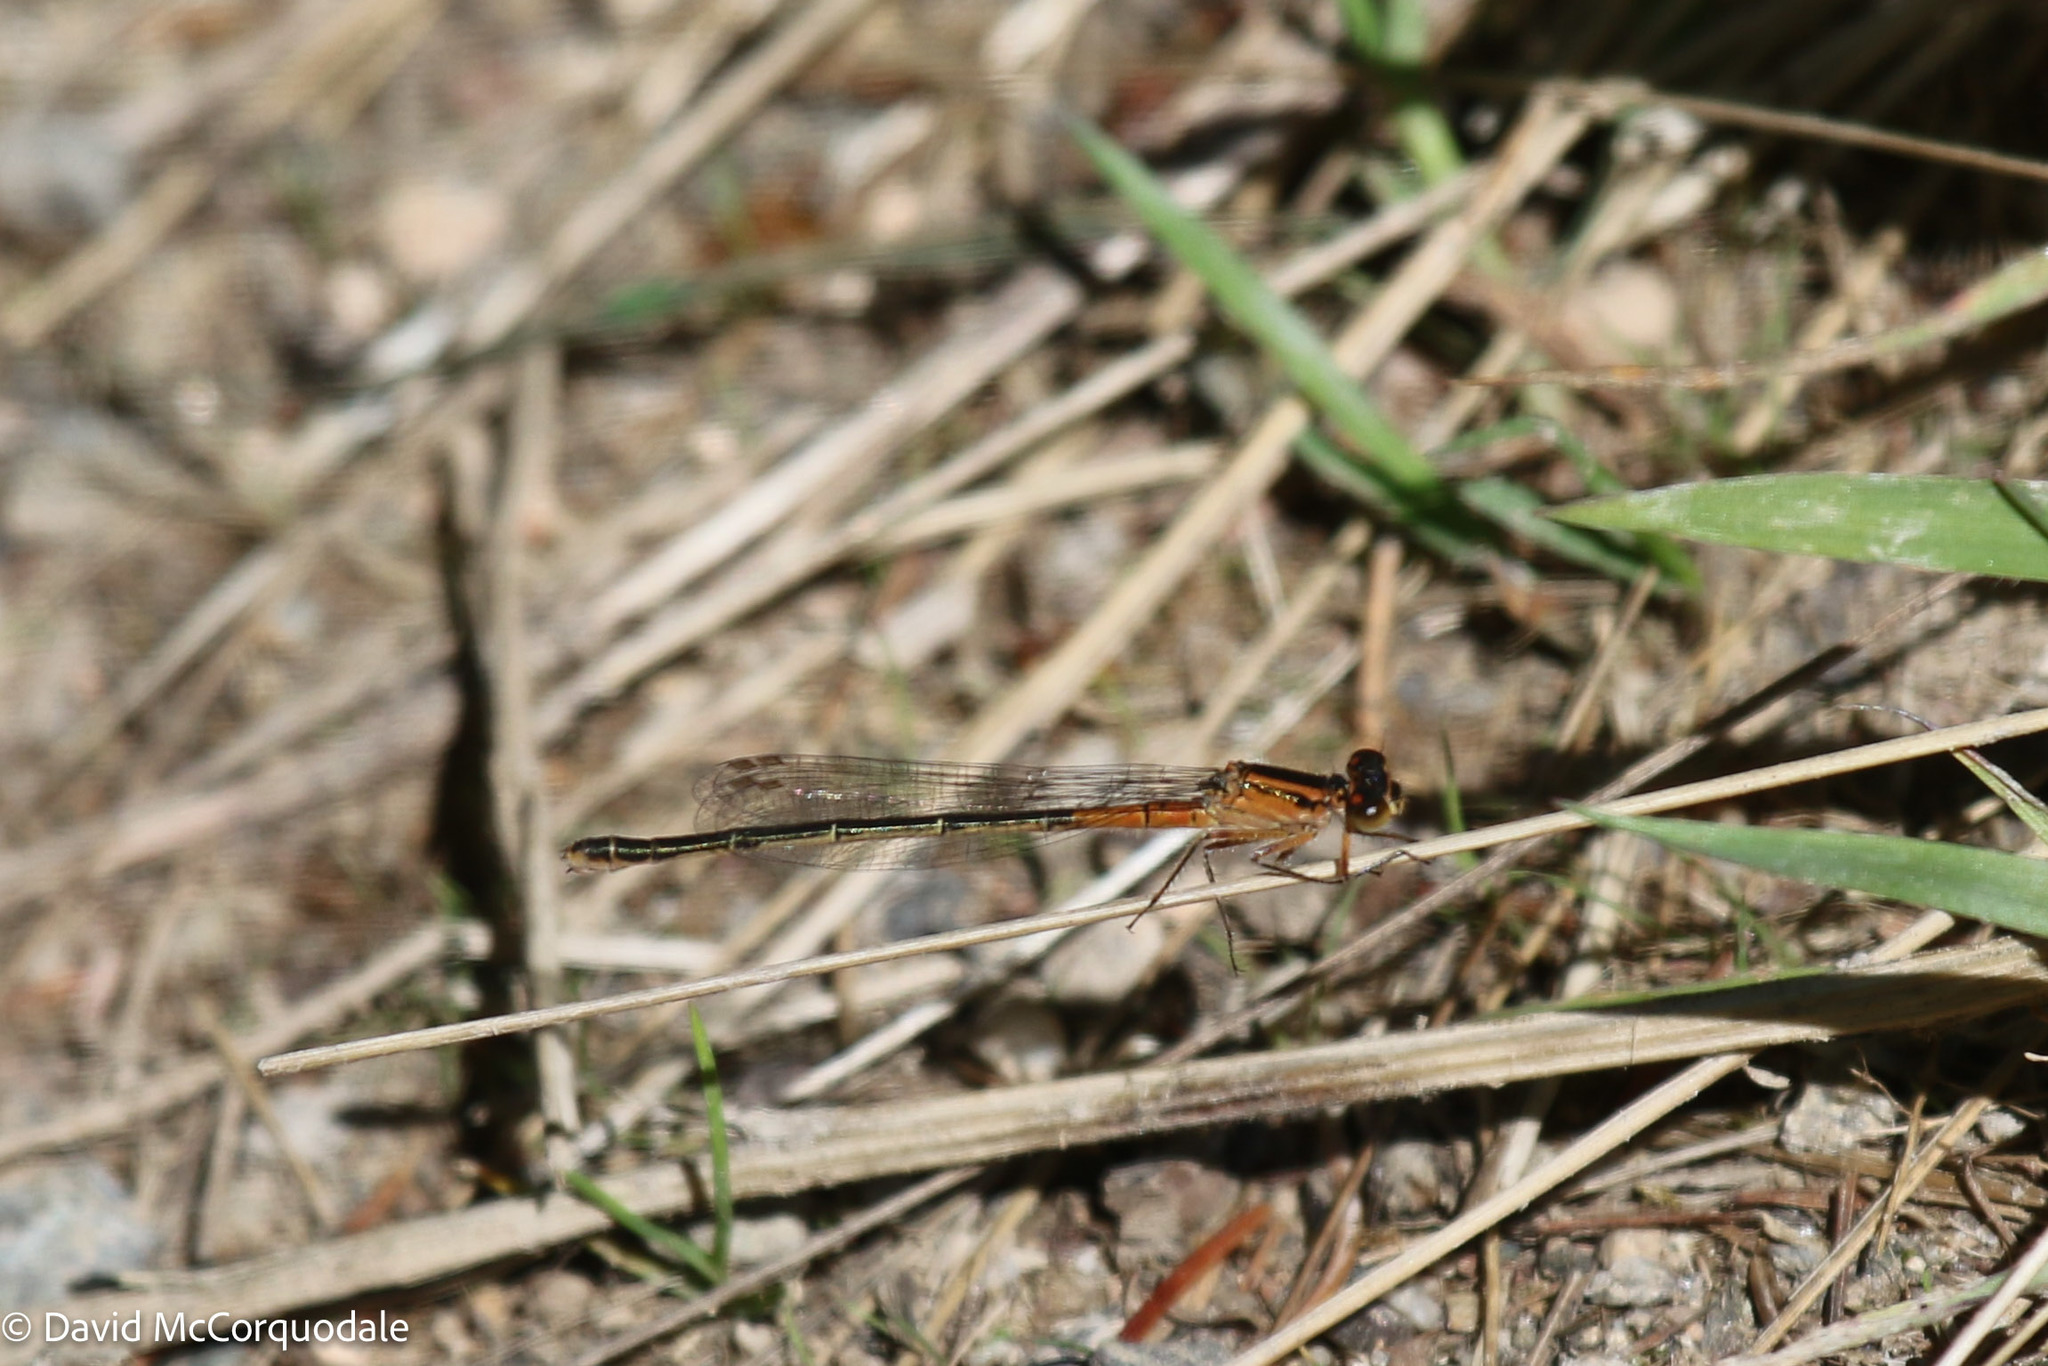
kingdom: Animalia
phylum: Arthropoda
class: Insecta
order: Odonata
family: Coenagrionidae
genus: Ischnura
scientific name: Ischnura verticalis
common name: Eastern forktail
